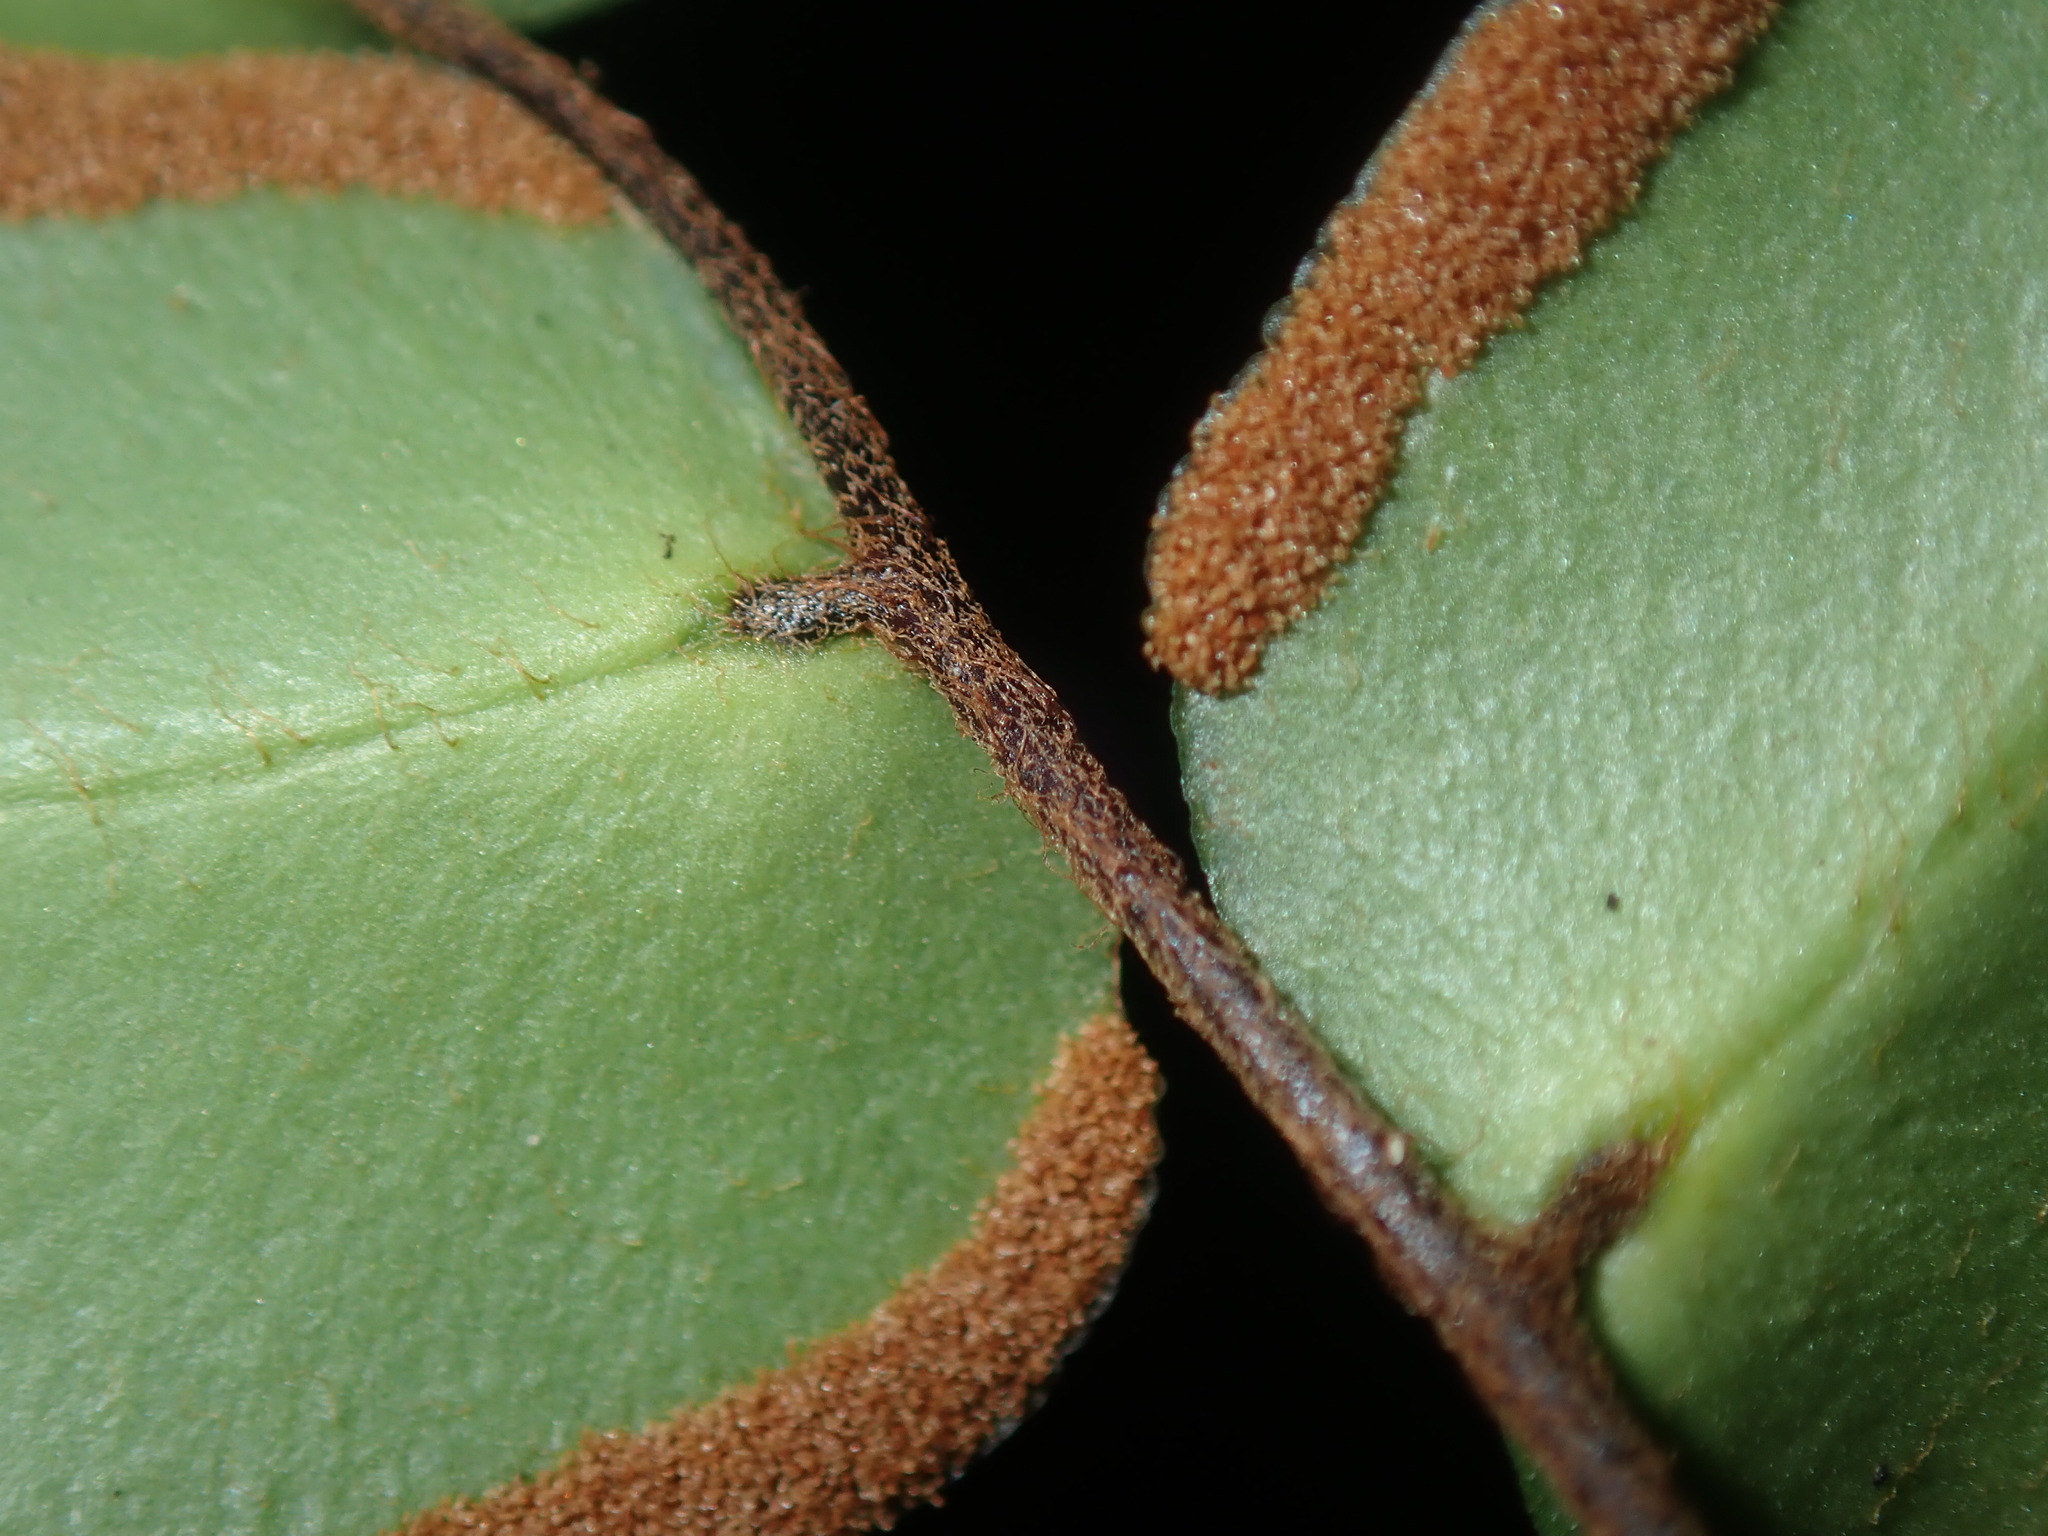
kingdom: Plantae
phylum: Tracheophyta
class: Polypodiopsida
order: Polypodiales
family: Pteridaceae
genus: Pellaea
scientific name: Pellaea paradoxa
